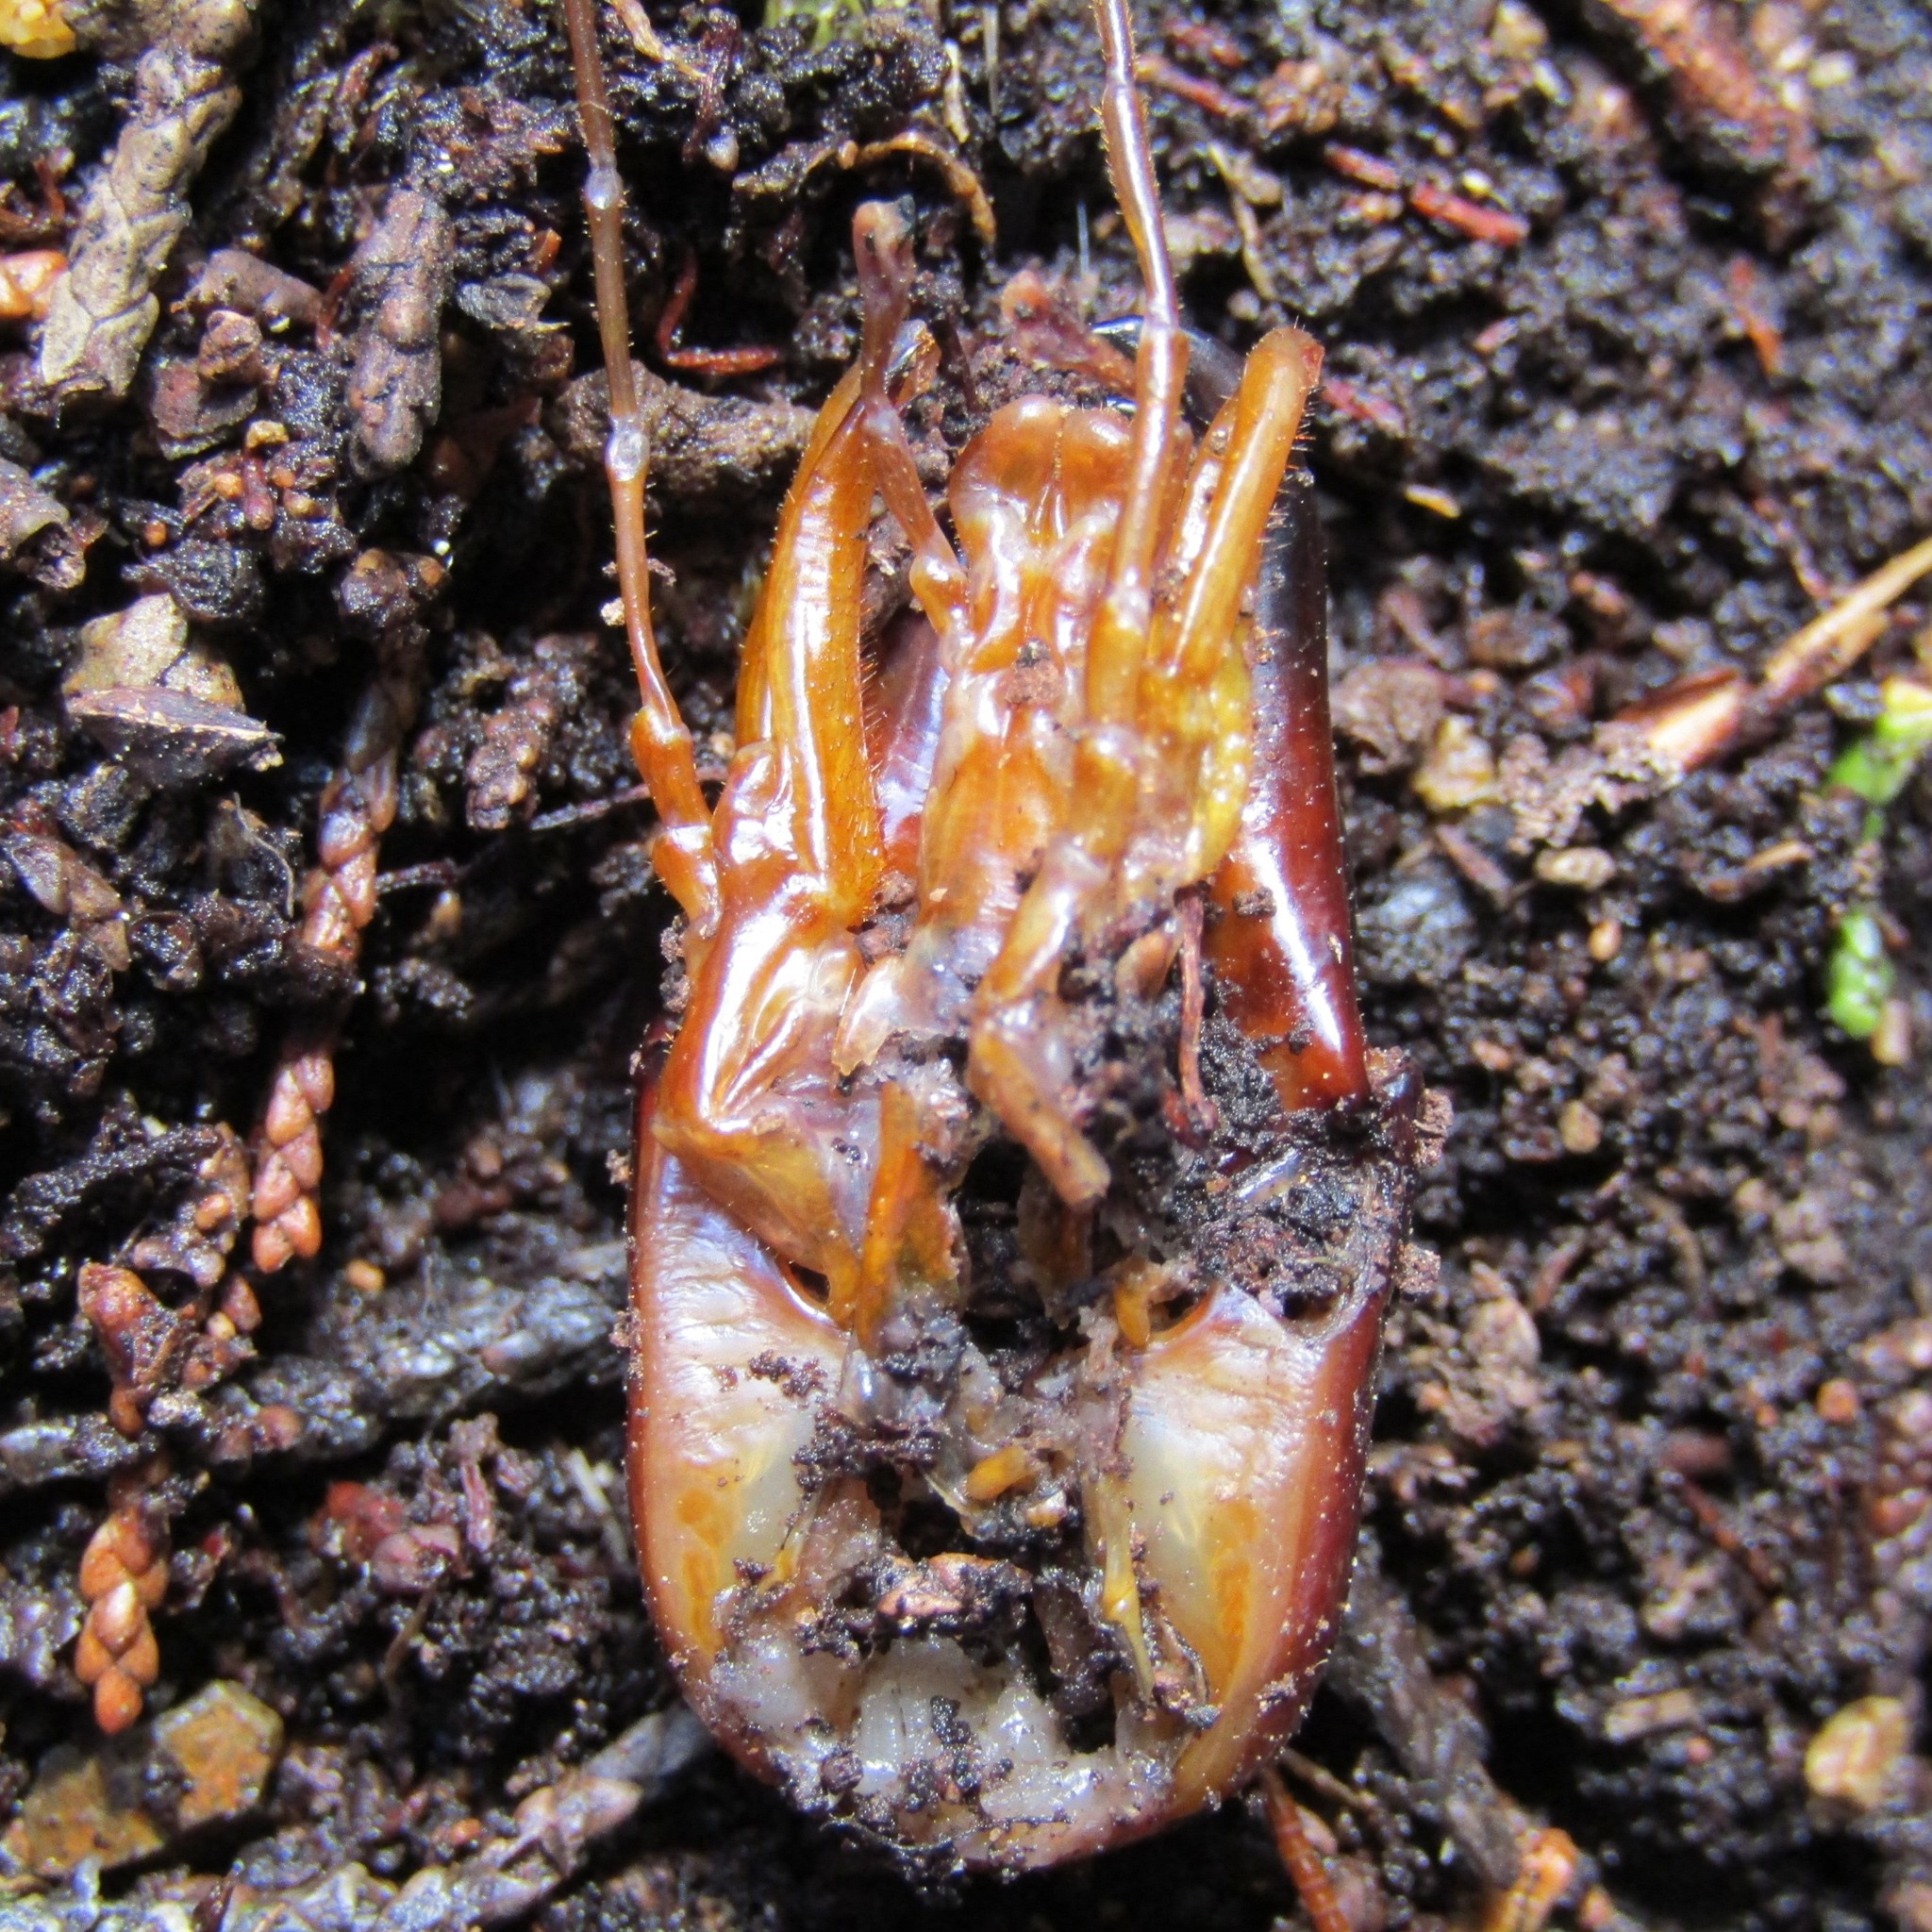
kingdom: Animalia
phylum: Arthropoda
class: Insecta
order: Orthoptera
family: Anostostomatidae
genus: Hemideina
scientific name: Hemideina crassidens
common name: Wellington tree weta
